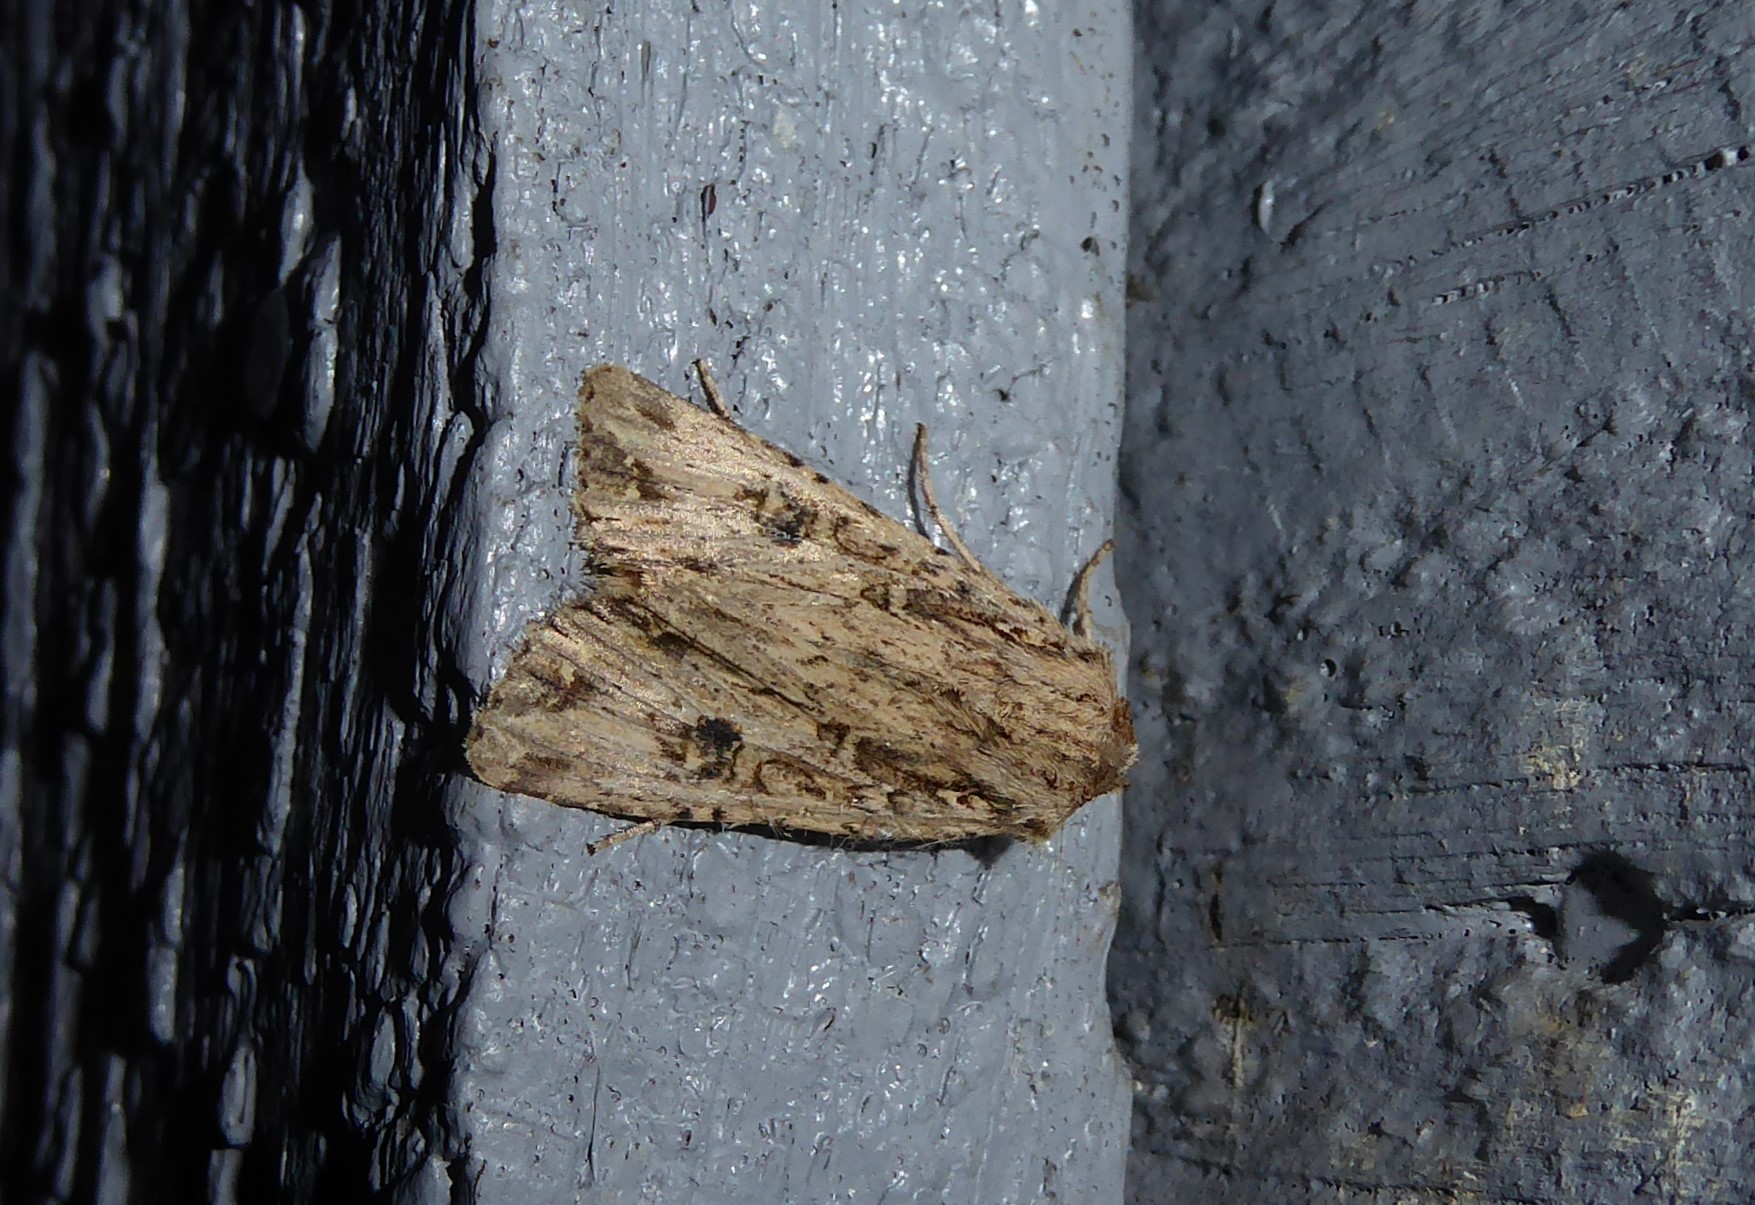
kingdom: Animalia
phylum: Arthropoda
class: Insecta
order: Lepidoptera
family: Noctuidae
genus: Ichneutica
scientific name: Ichneutica lignana
